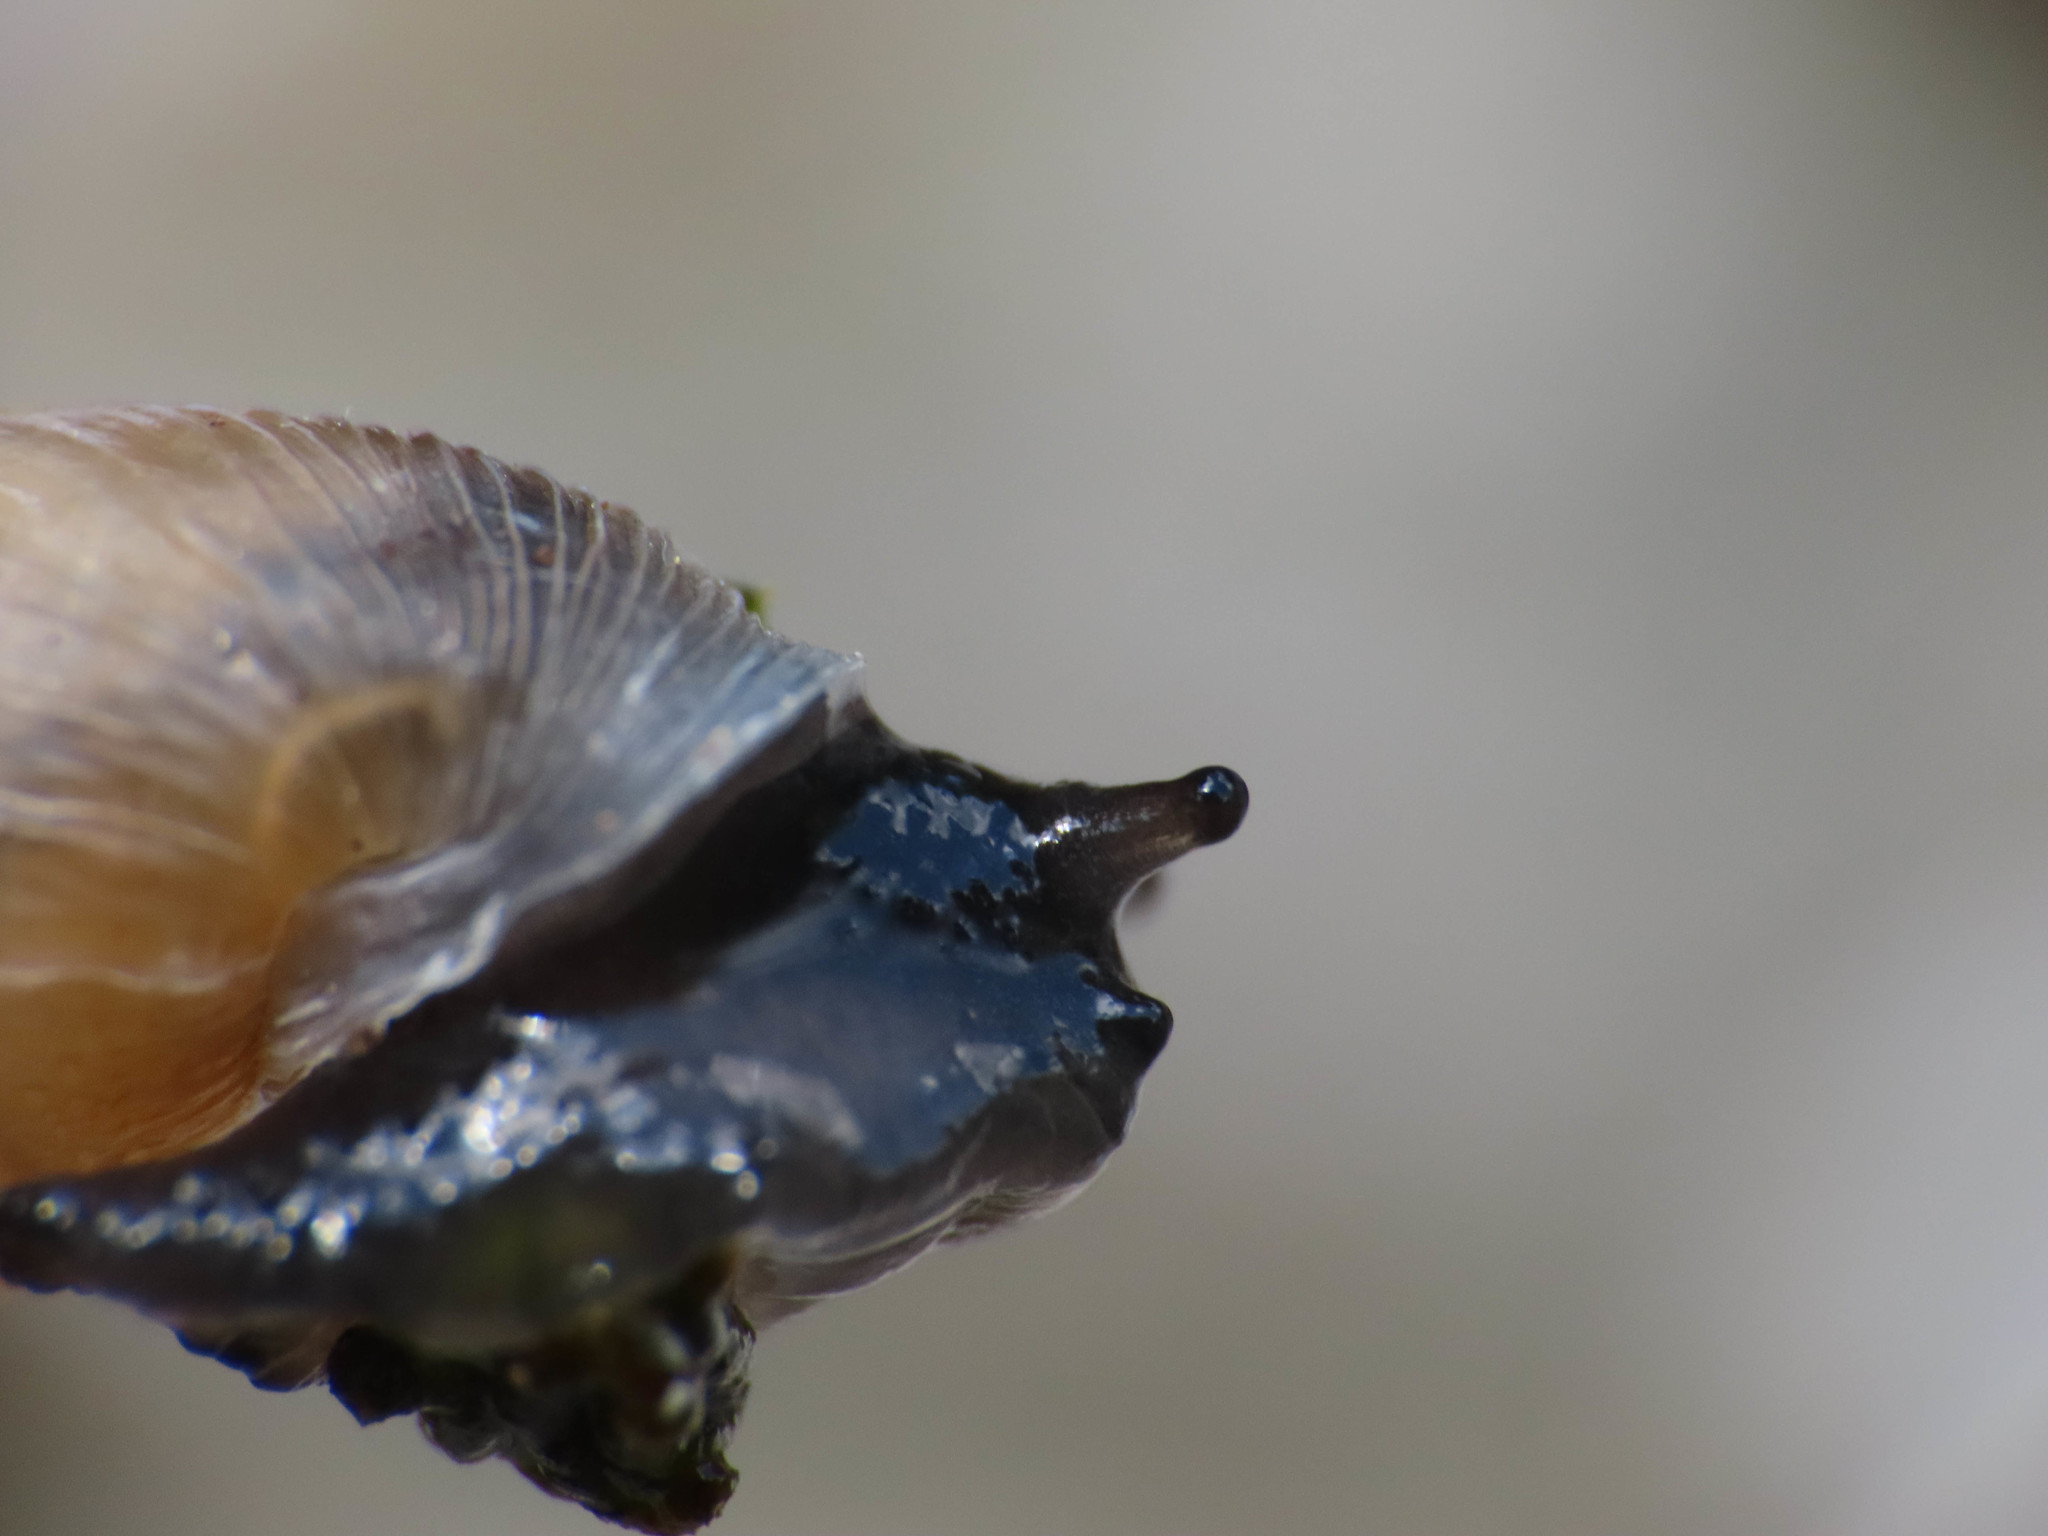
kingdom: Animalia
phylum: Mollusca
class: Gastropoda
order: Stylommatophora
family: Clausiliidae
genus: Leucostigma
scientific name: Leucostigma candidescens
